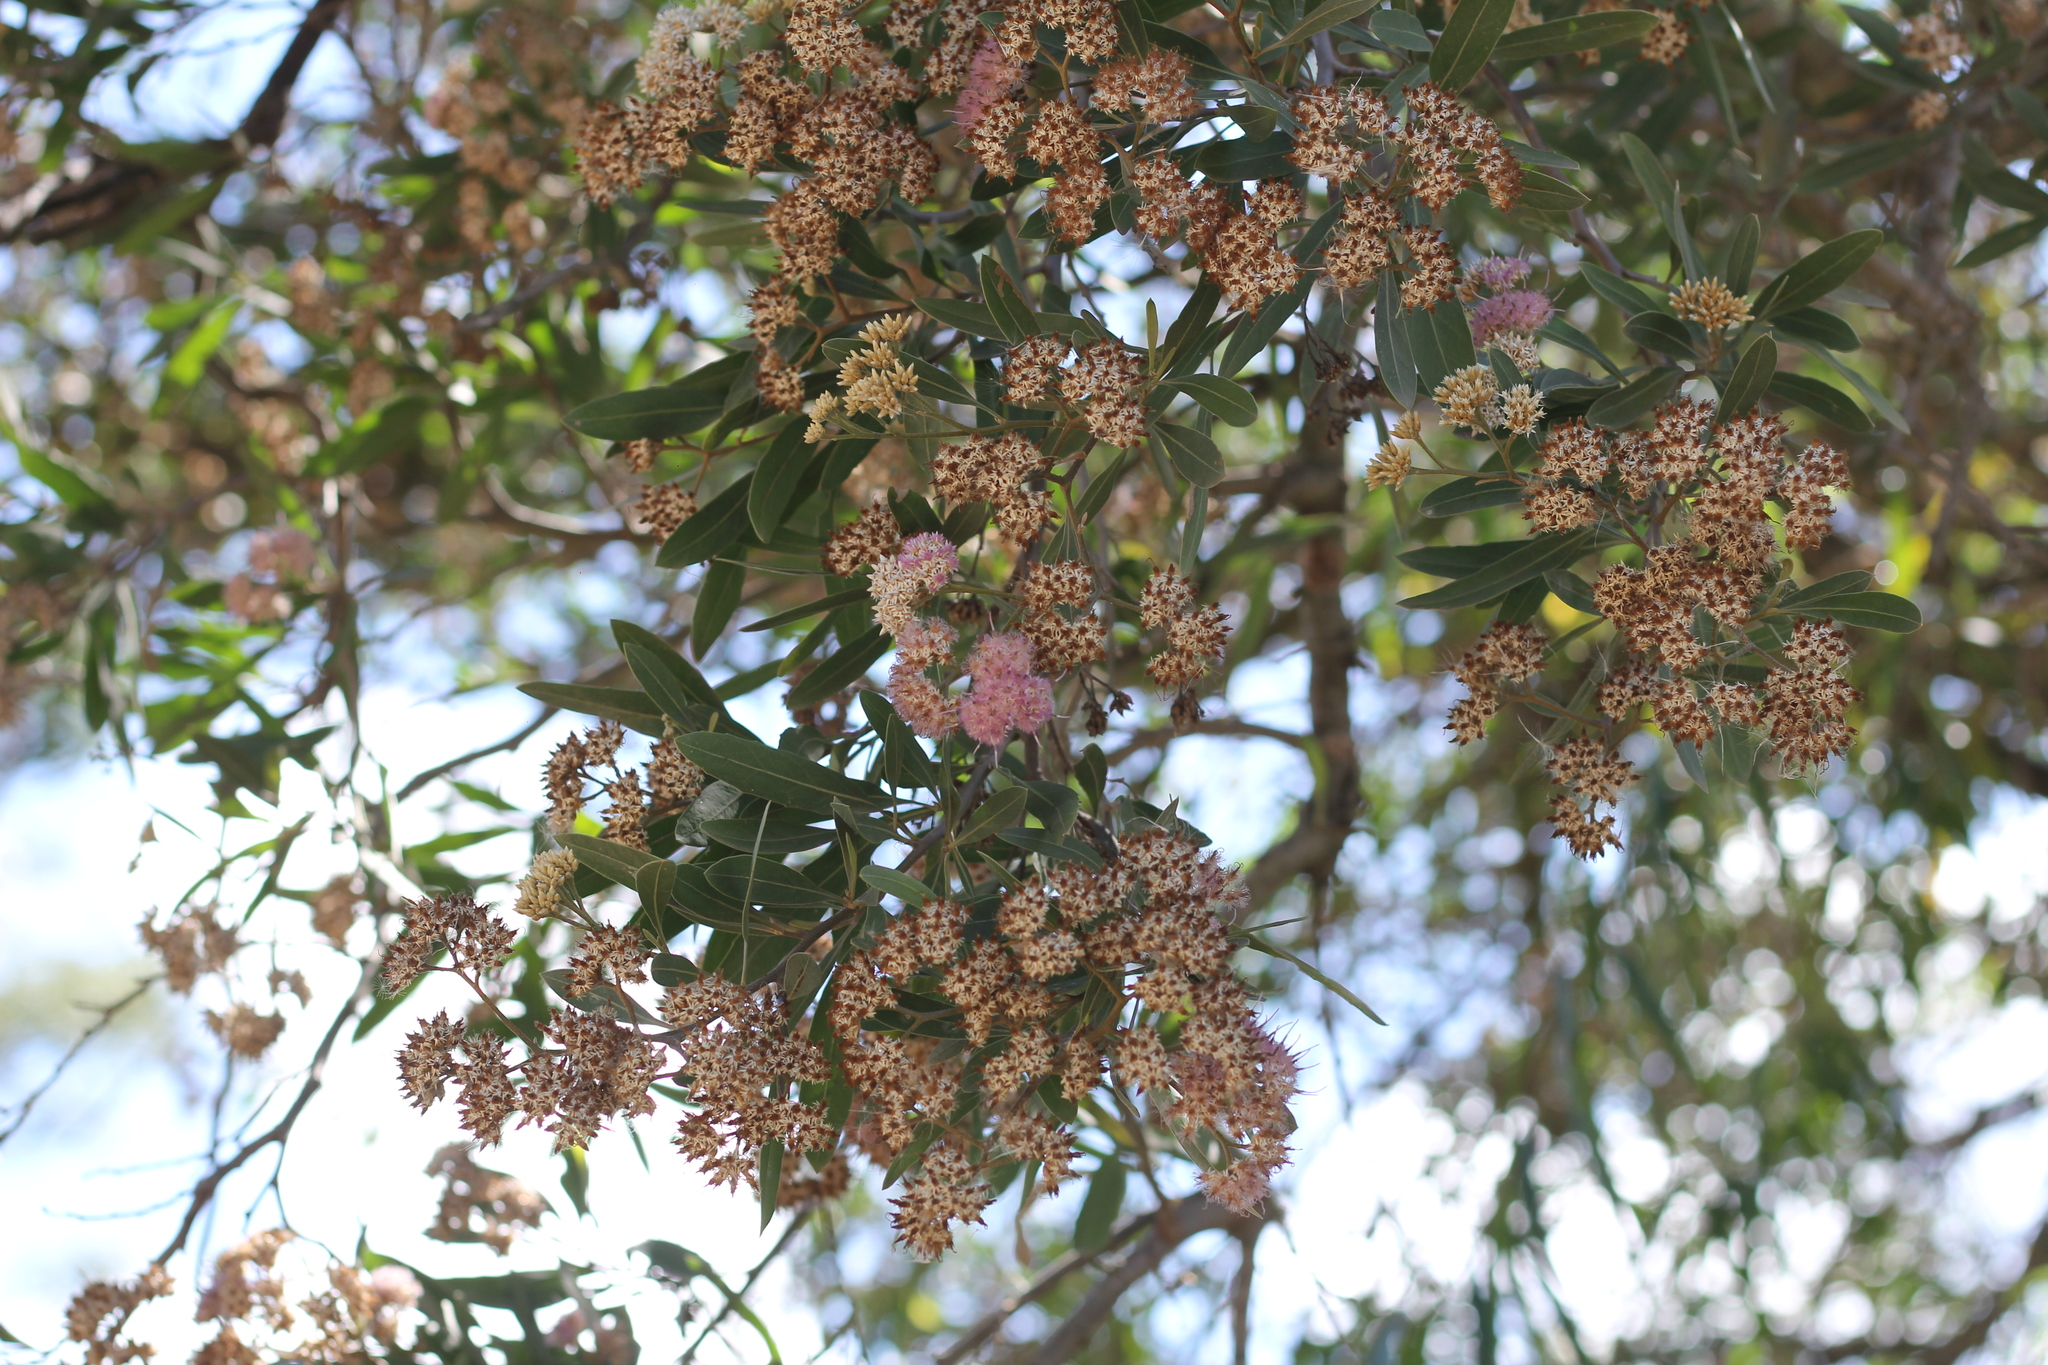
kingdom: Plantae
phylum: Tracheophyta
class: Magnoliopsida
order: Asterales
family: Asteraceae
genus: Tessaria
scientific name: Tessaria integrifolia
